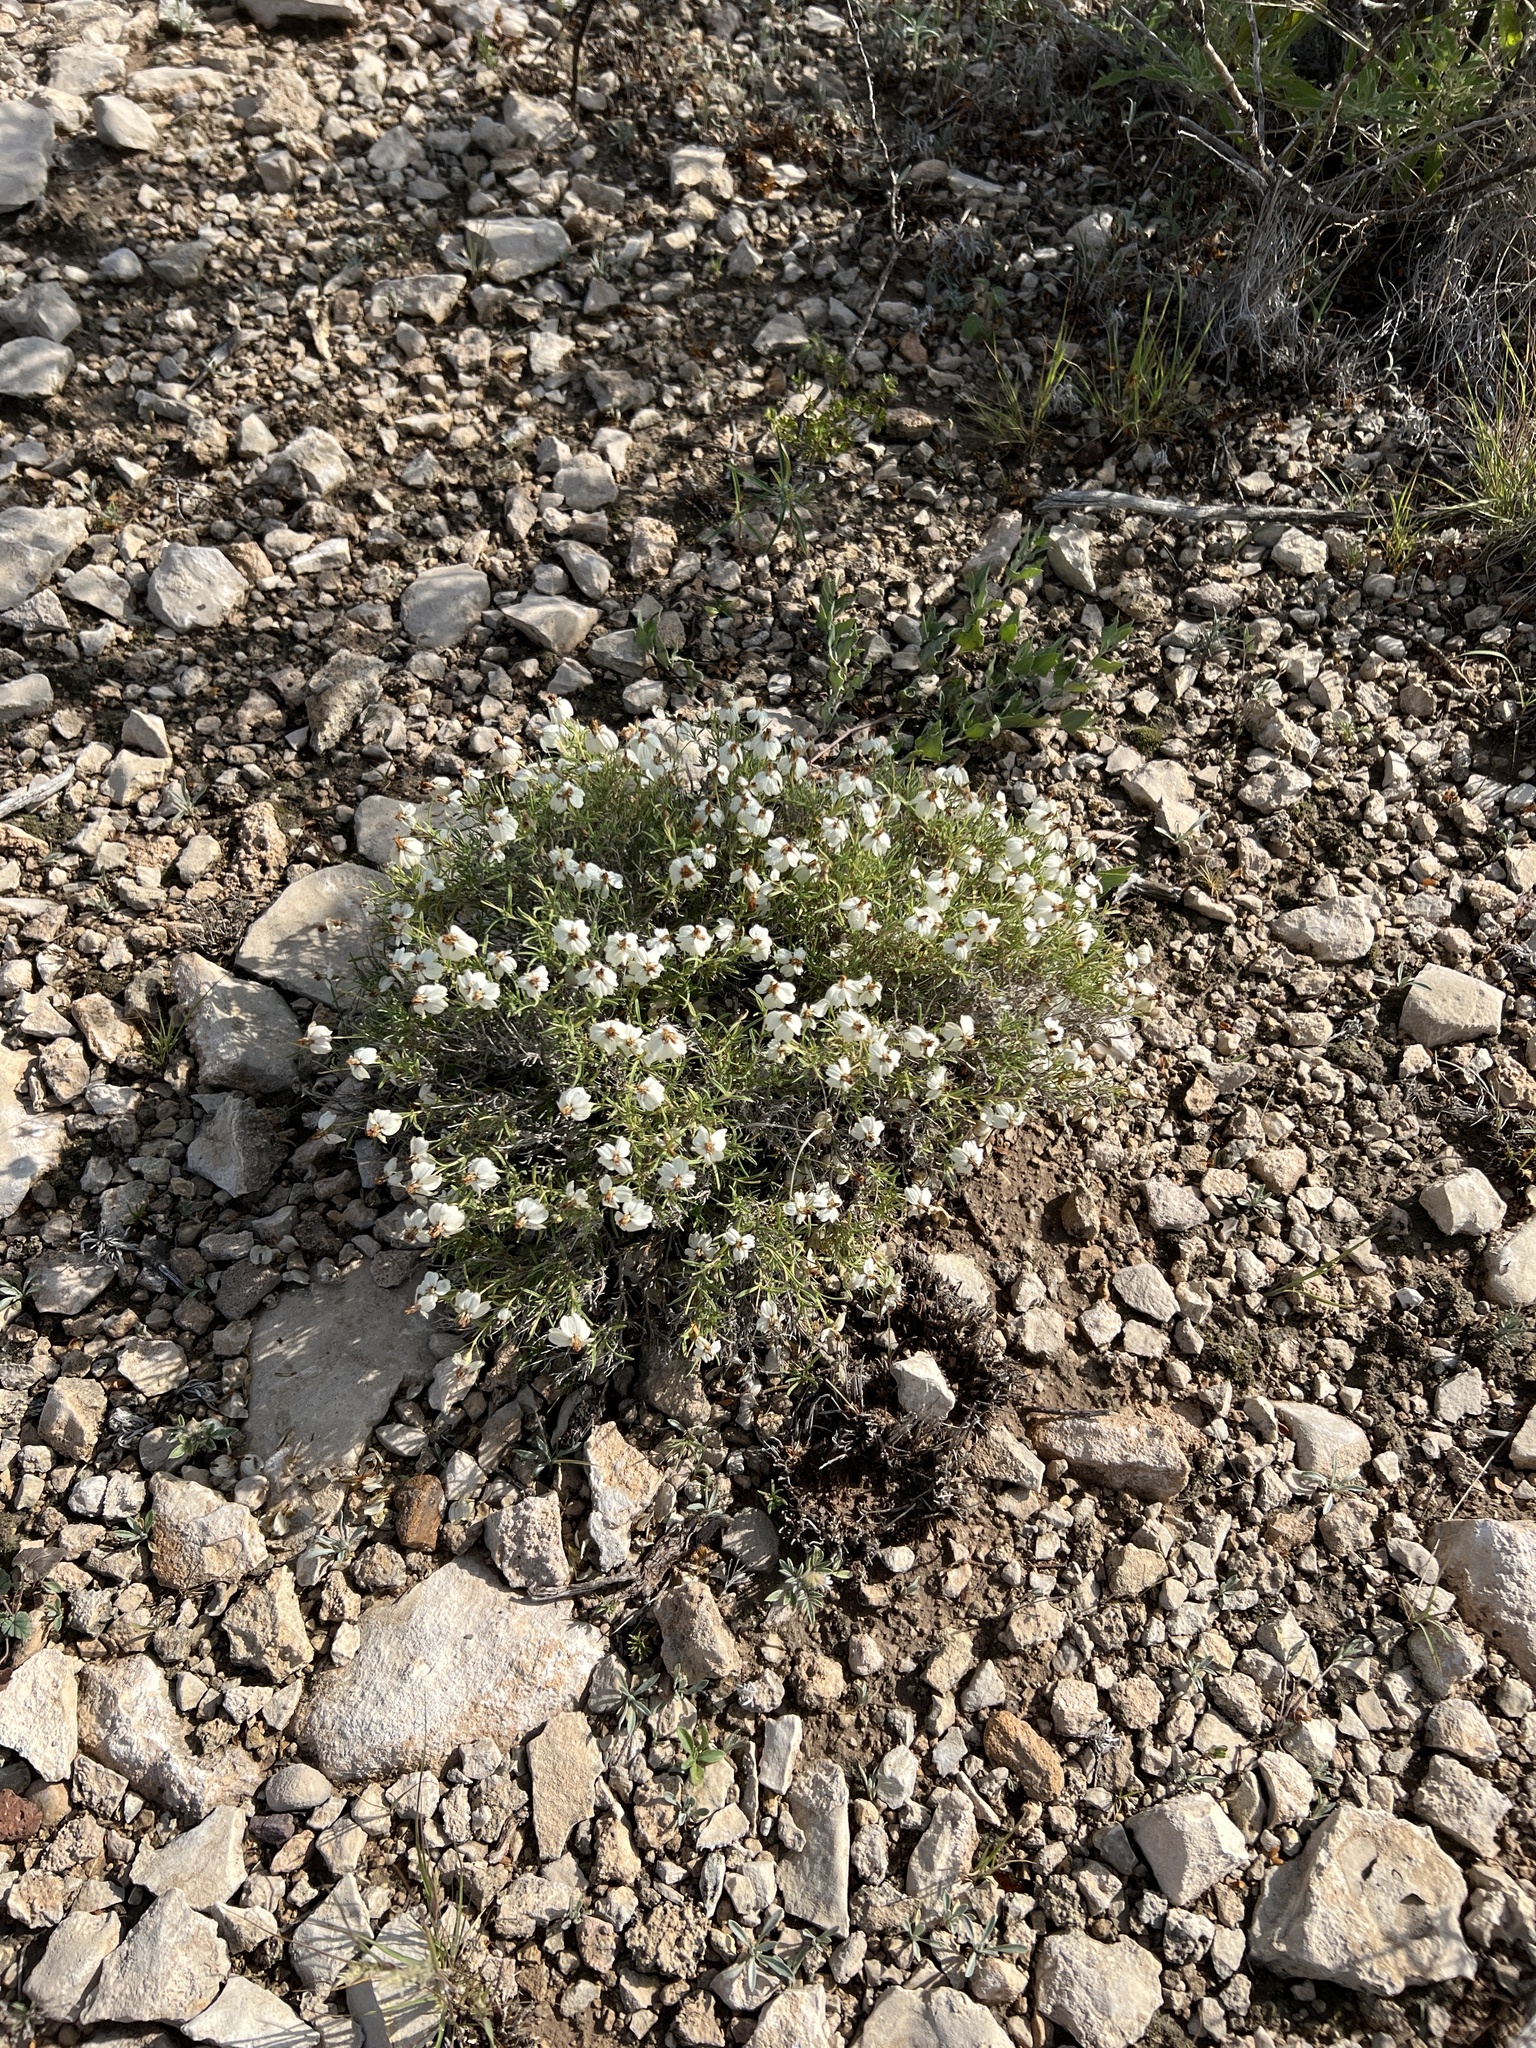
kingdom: Plantae
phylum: Tracheophyta
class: Magnoliopsida
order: Asterales
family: Asteraceae
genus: Zinnia
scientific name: Zinnia acerosa
